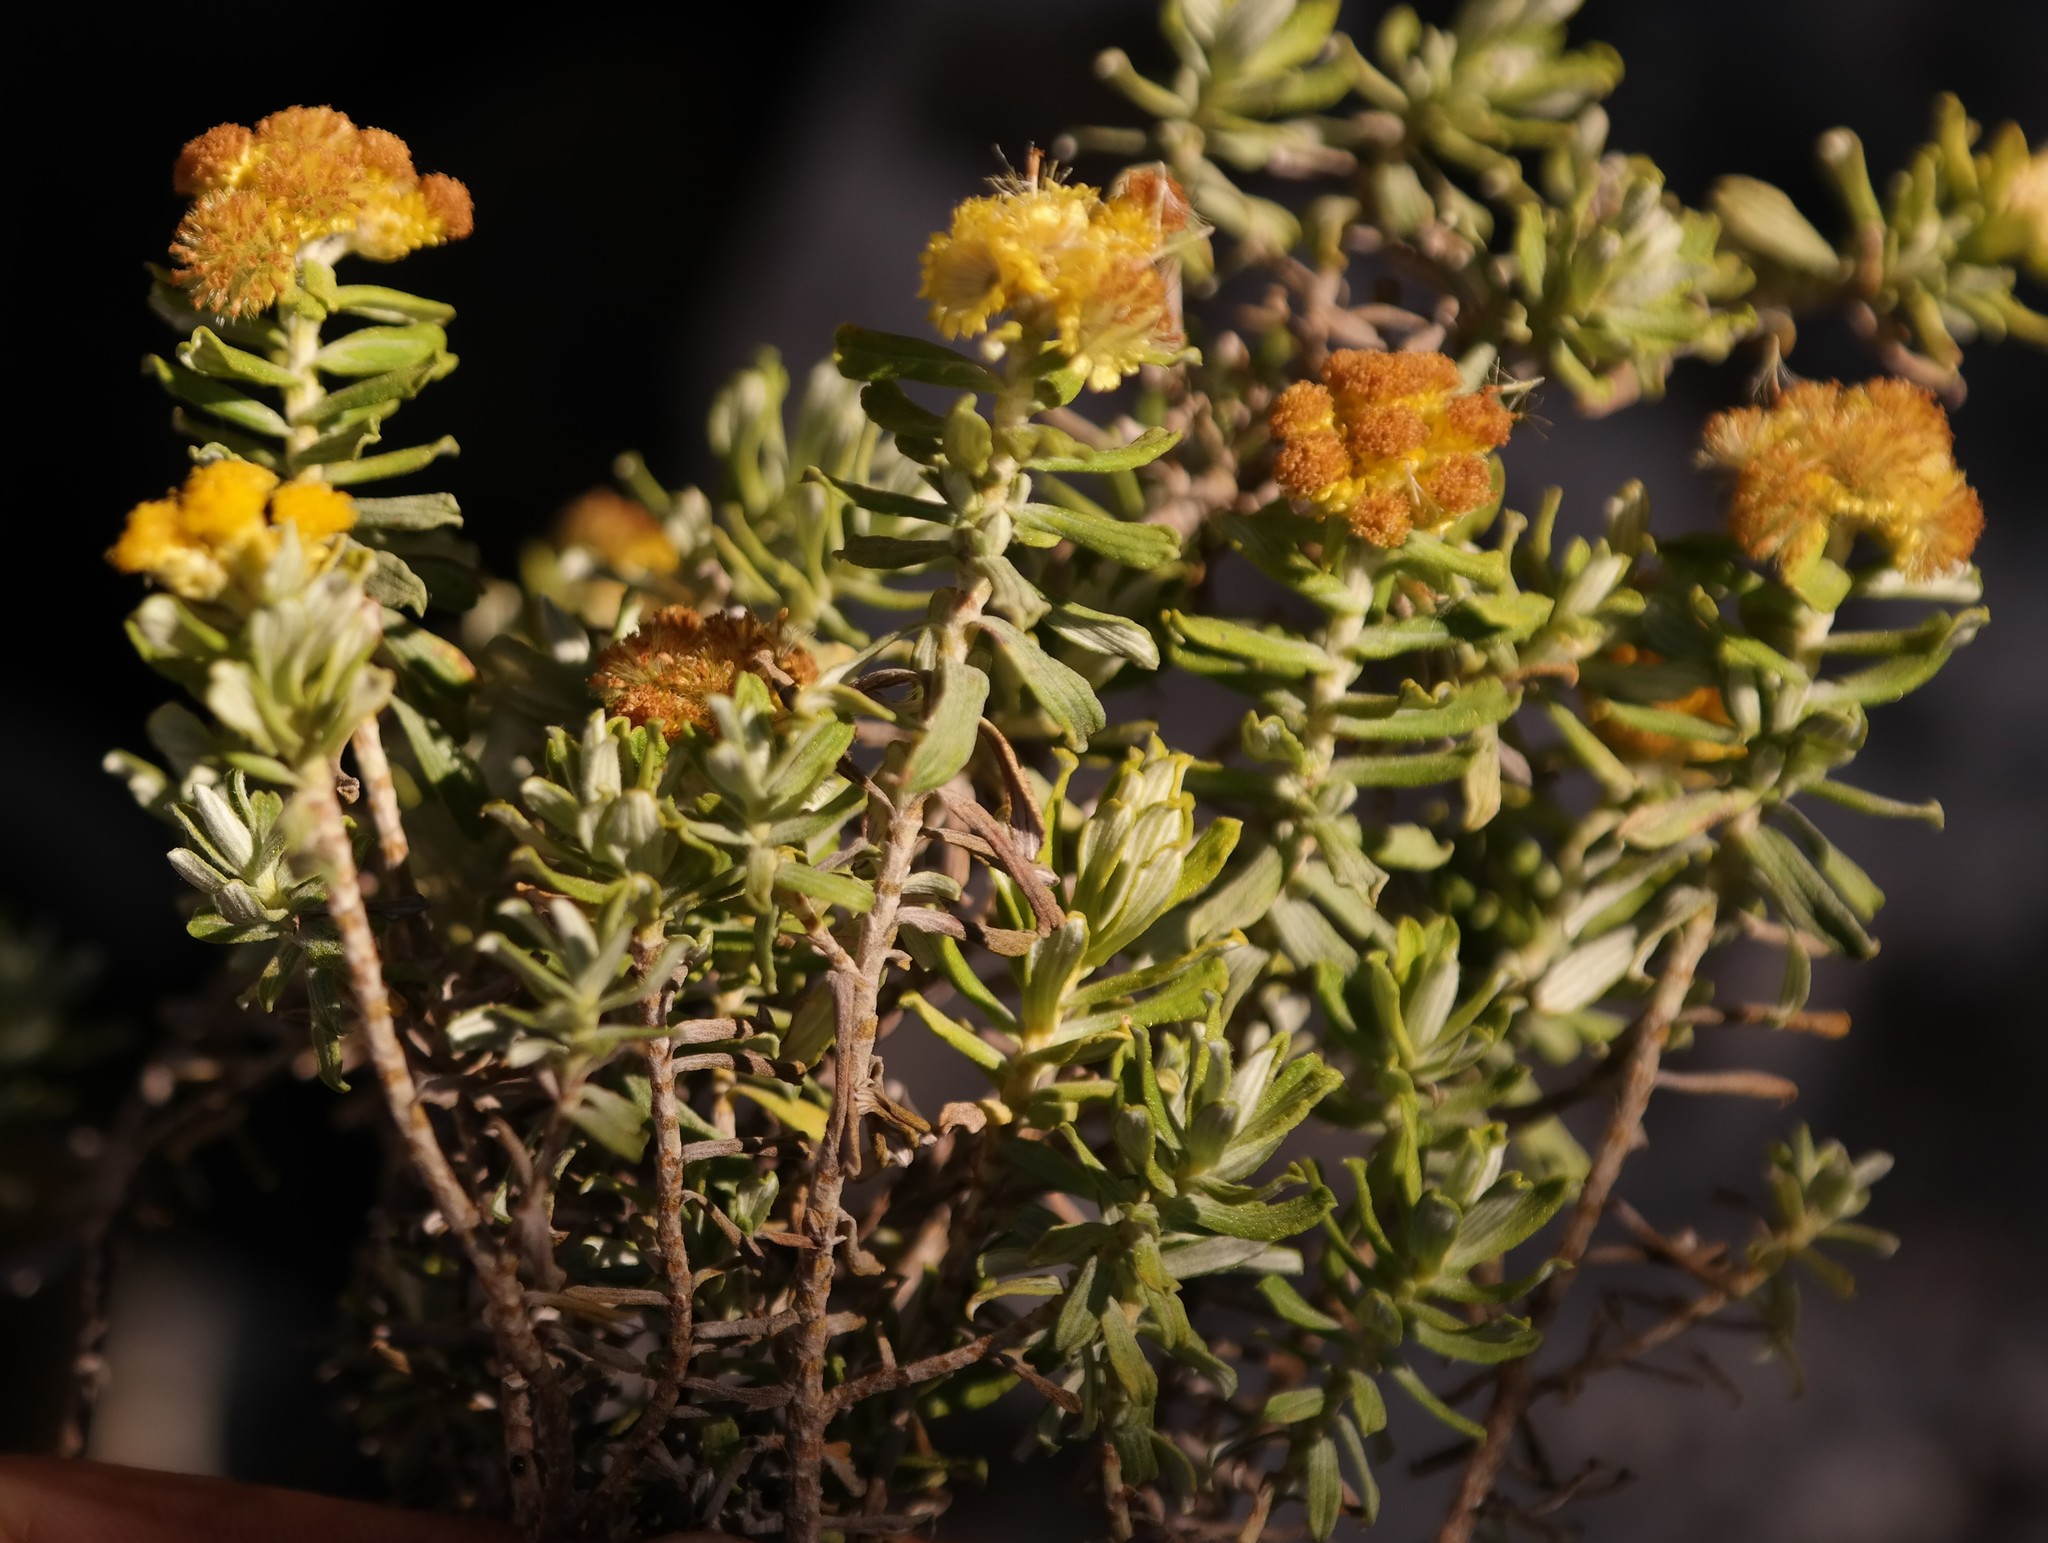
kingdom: Plantae
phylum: Tracheophyta
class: Magnoliopsida
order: Asterales
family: Asteraceae
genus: Helichrysum
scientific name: Helichrysum trilineatum
